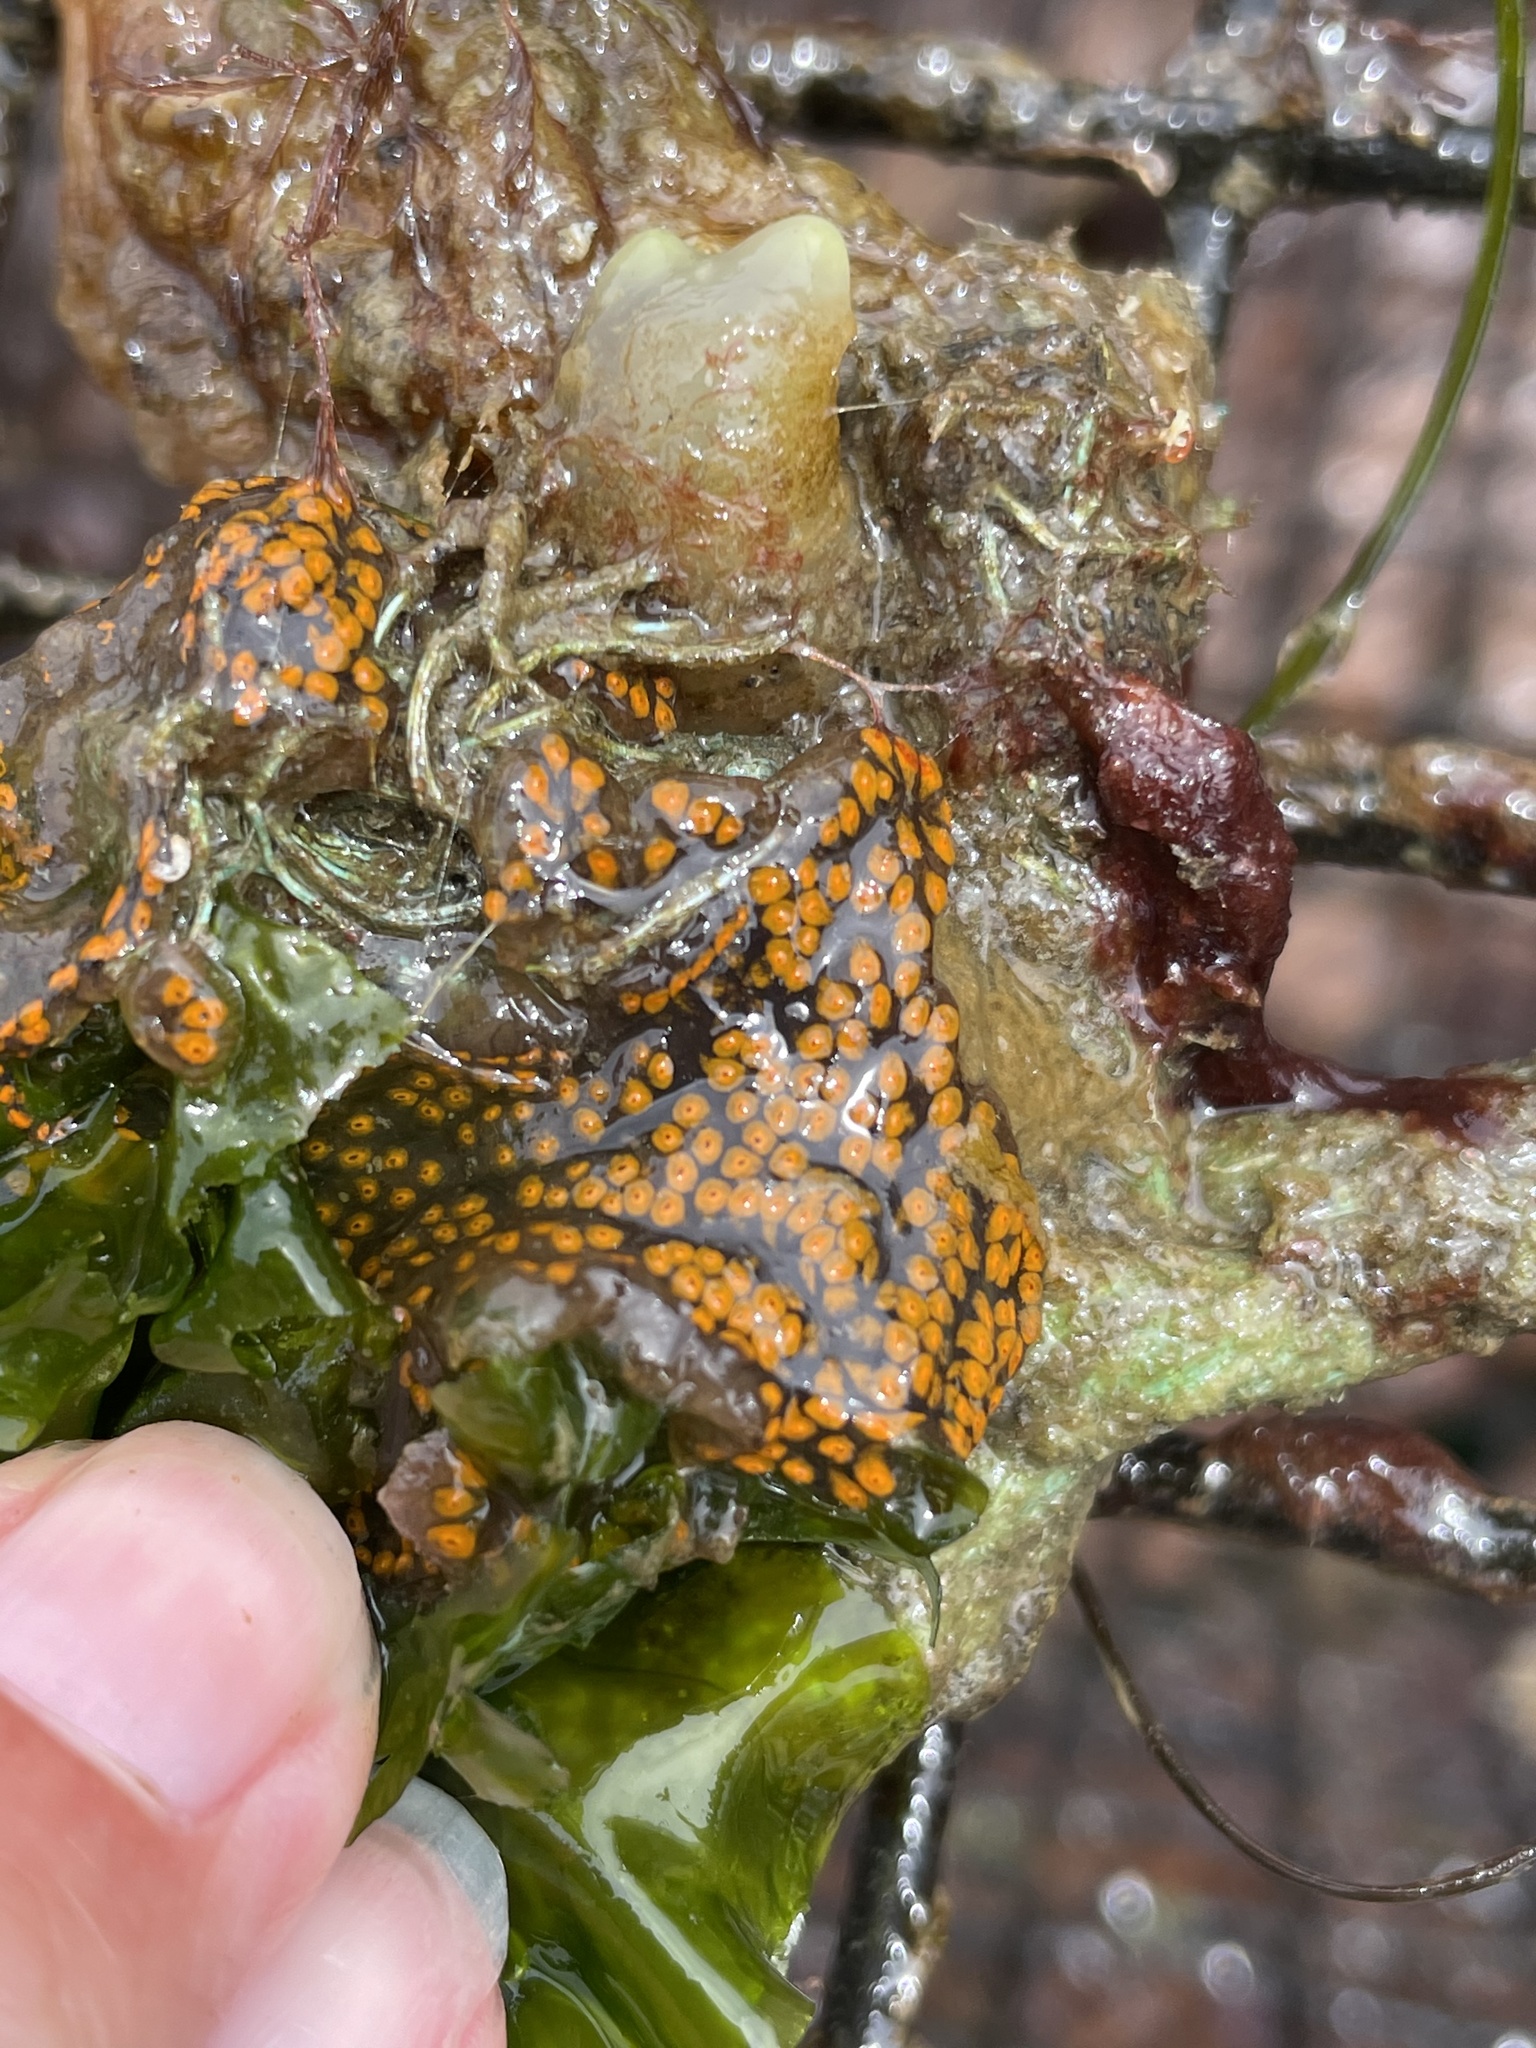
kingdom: Animalia
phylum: Chordata
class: Ascidiacea
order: Stolidobranchia
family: Styelidae
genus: Botrylloides
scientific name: Botrylloides diegensis
